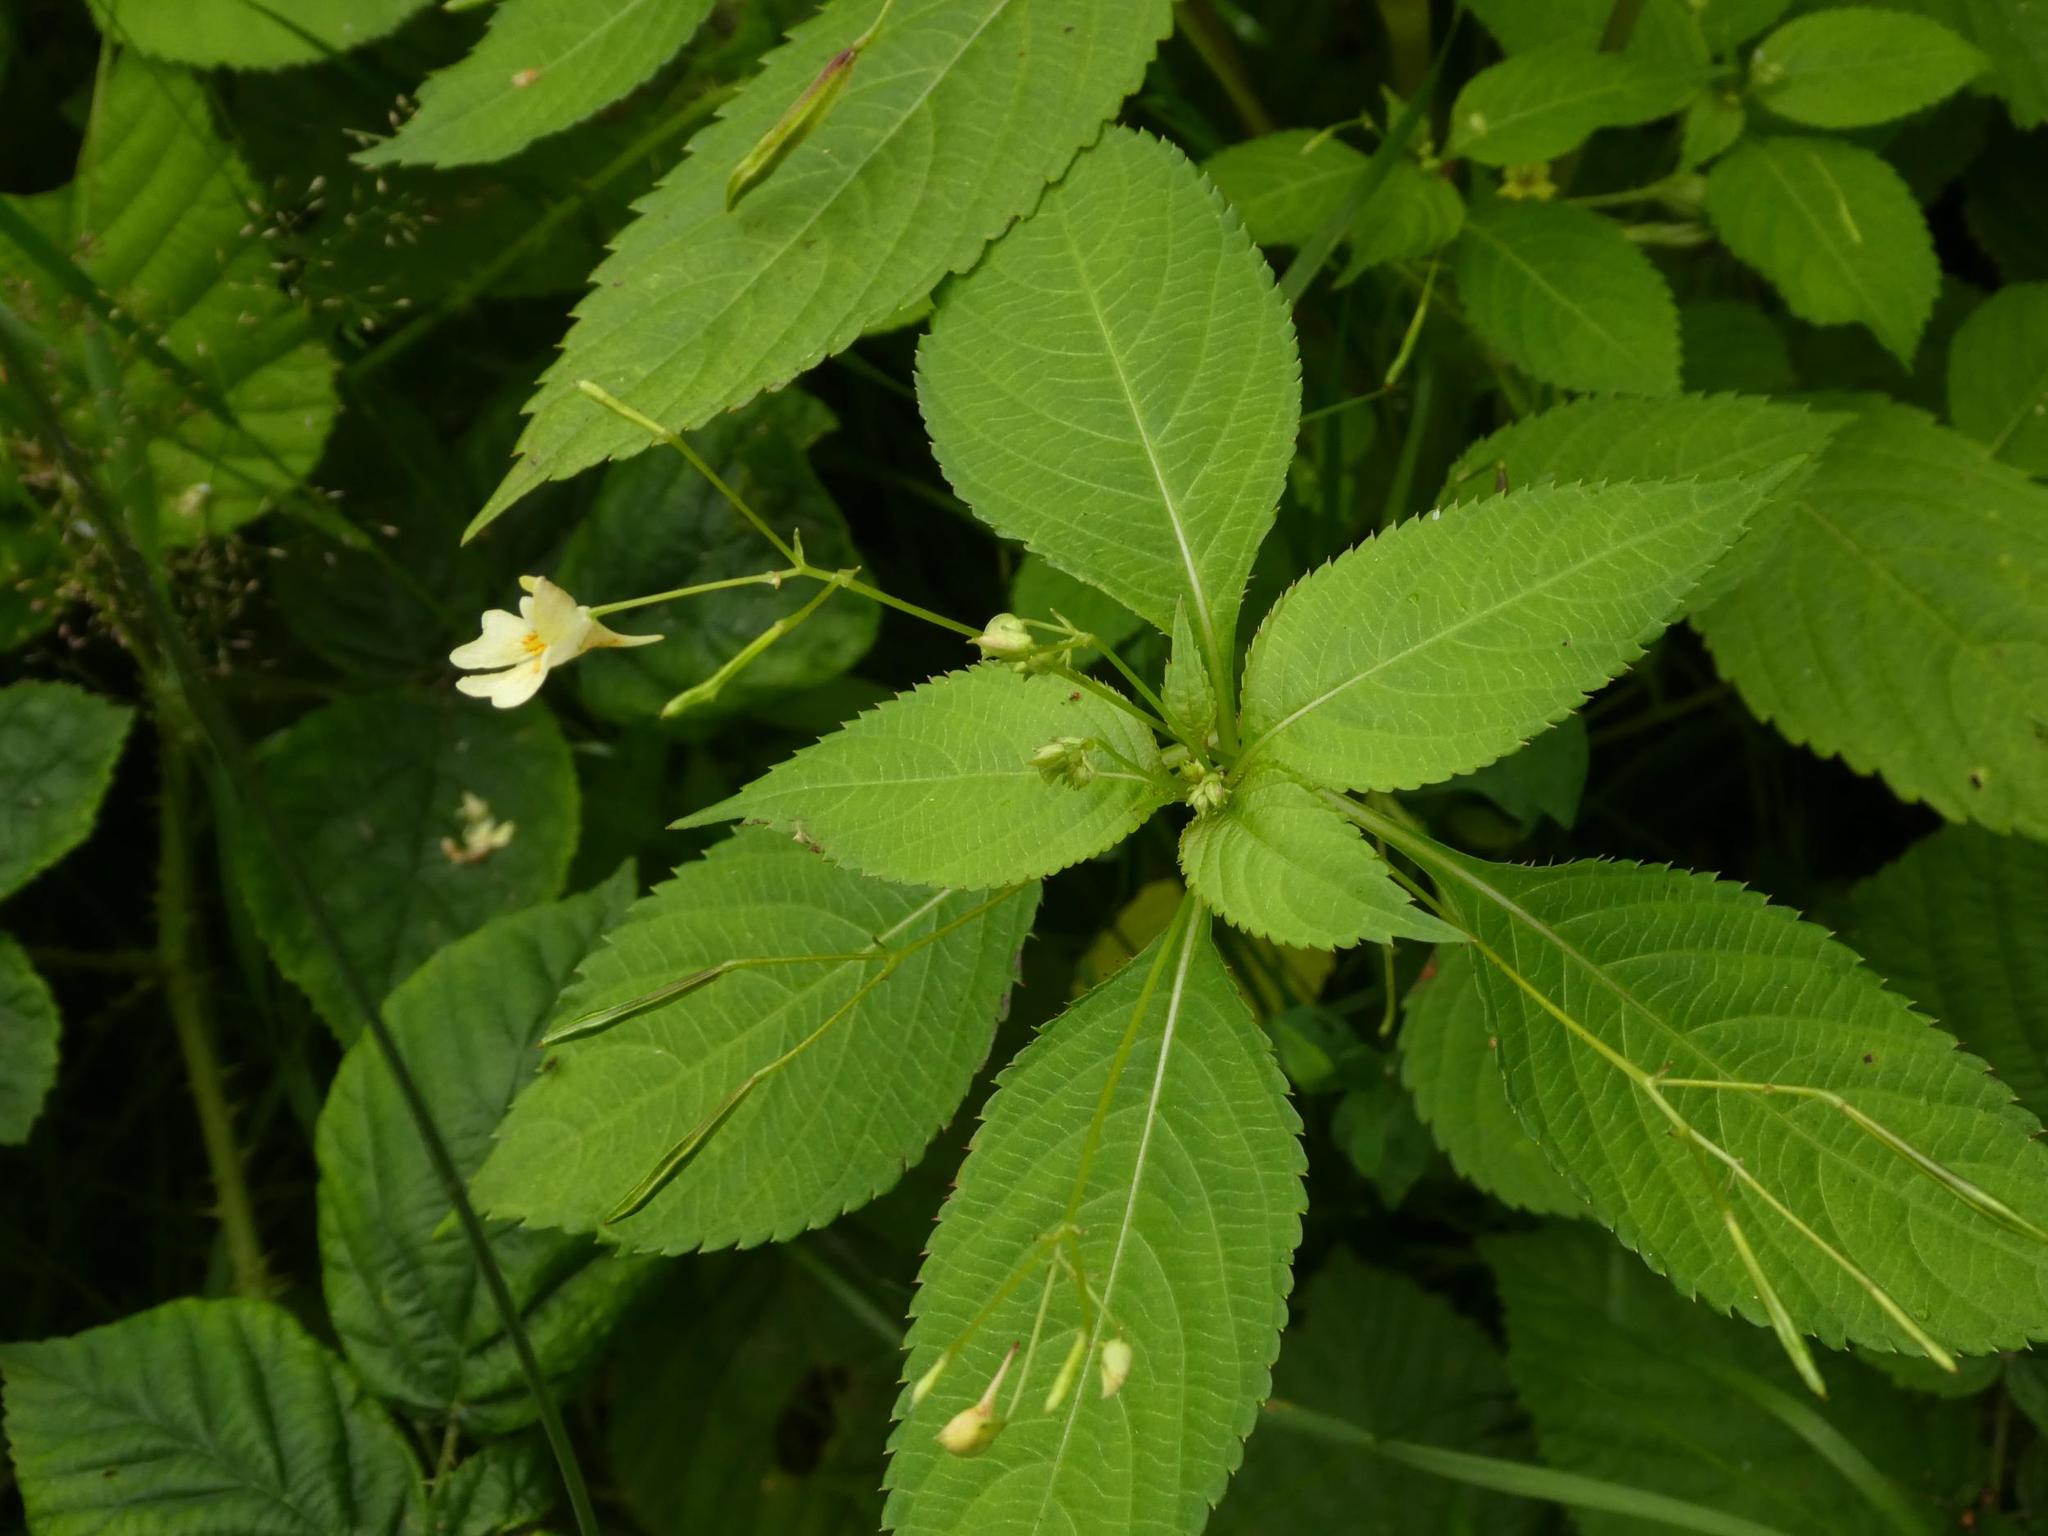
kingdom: Plantae
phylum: Tracheophyta
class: Magnoliopsida
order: Ericales
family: Balsaminaceae
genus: Impatiens
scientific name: Impatiens parviflora
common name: Small balsam
